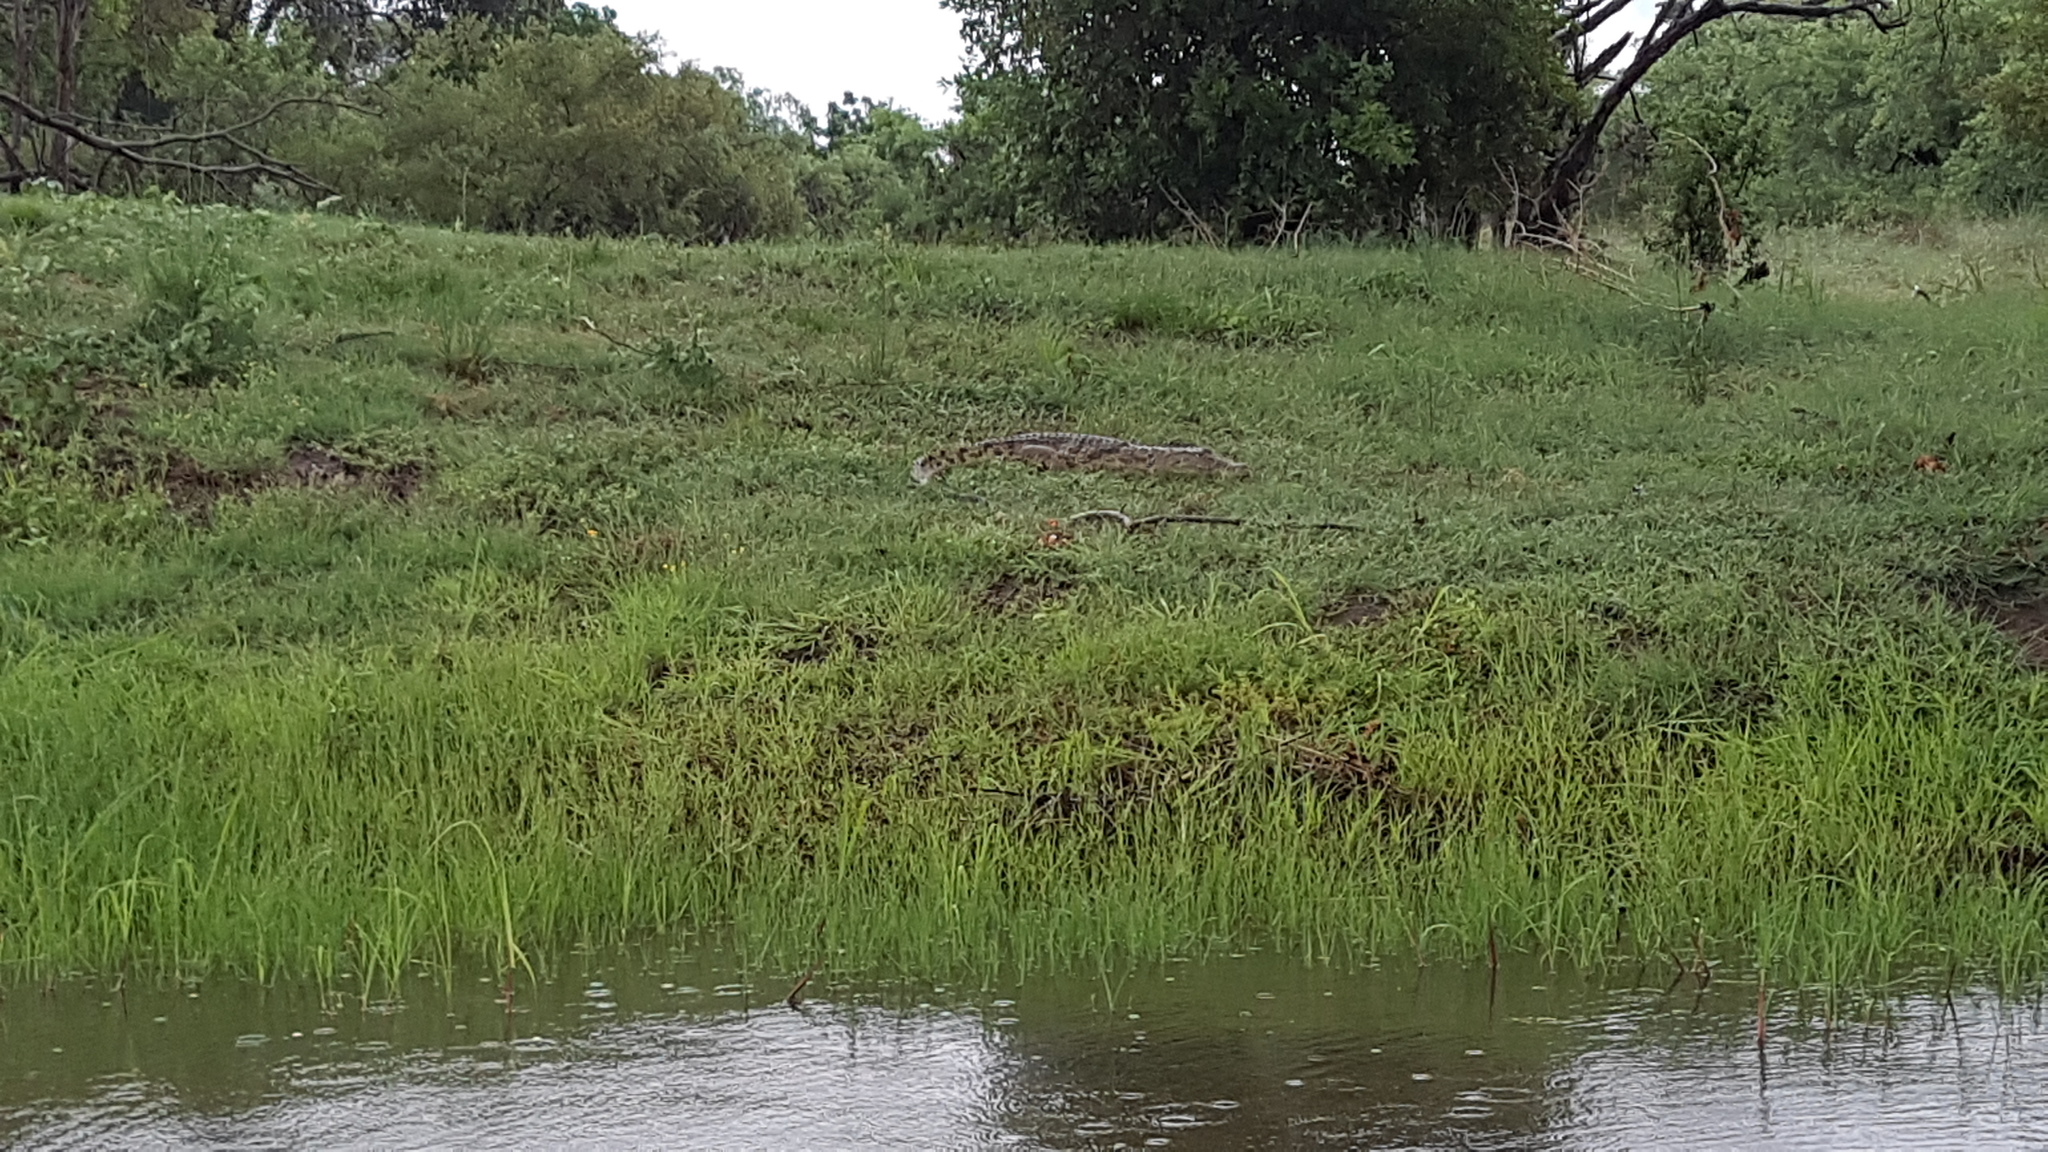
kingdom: Animalia
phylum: Chordata
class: Crocodylia
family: Crocodylidae
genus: Crocodylus
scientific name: Crocodylus niloticus
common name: Nile crocodile
